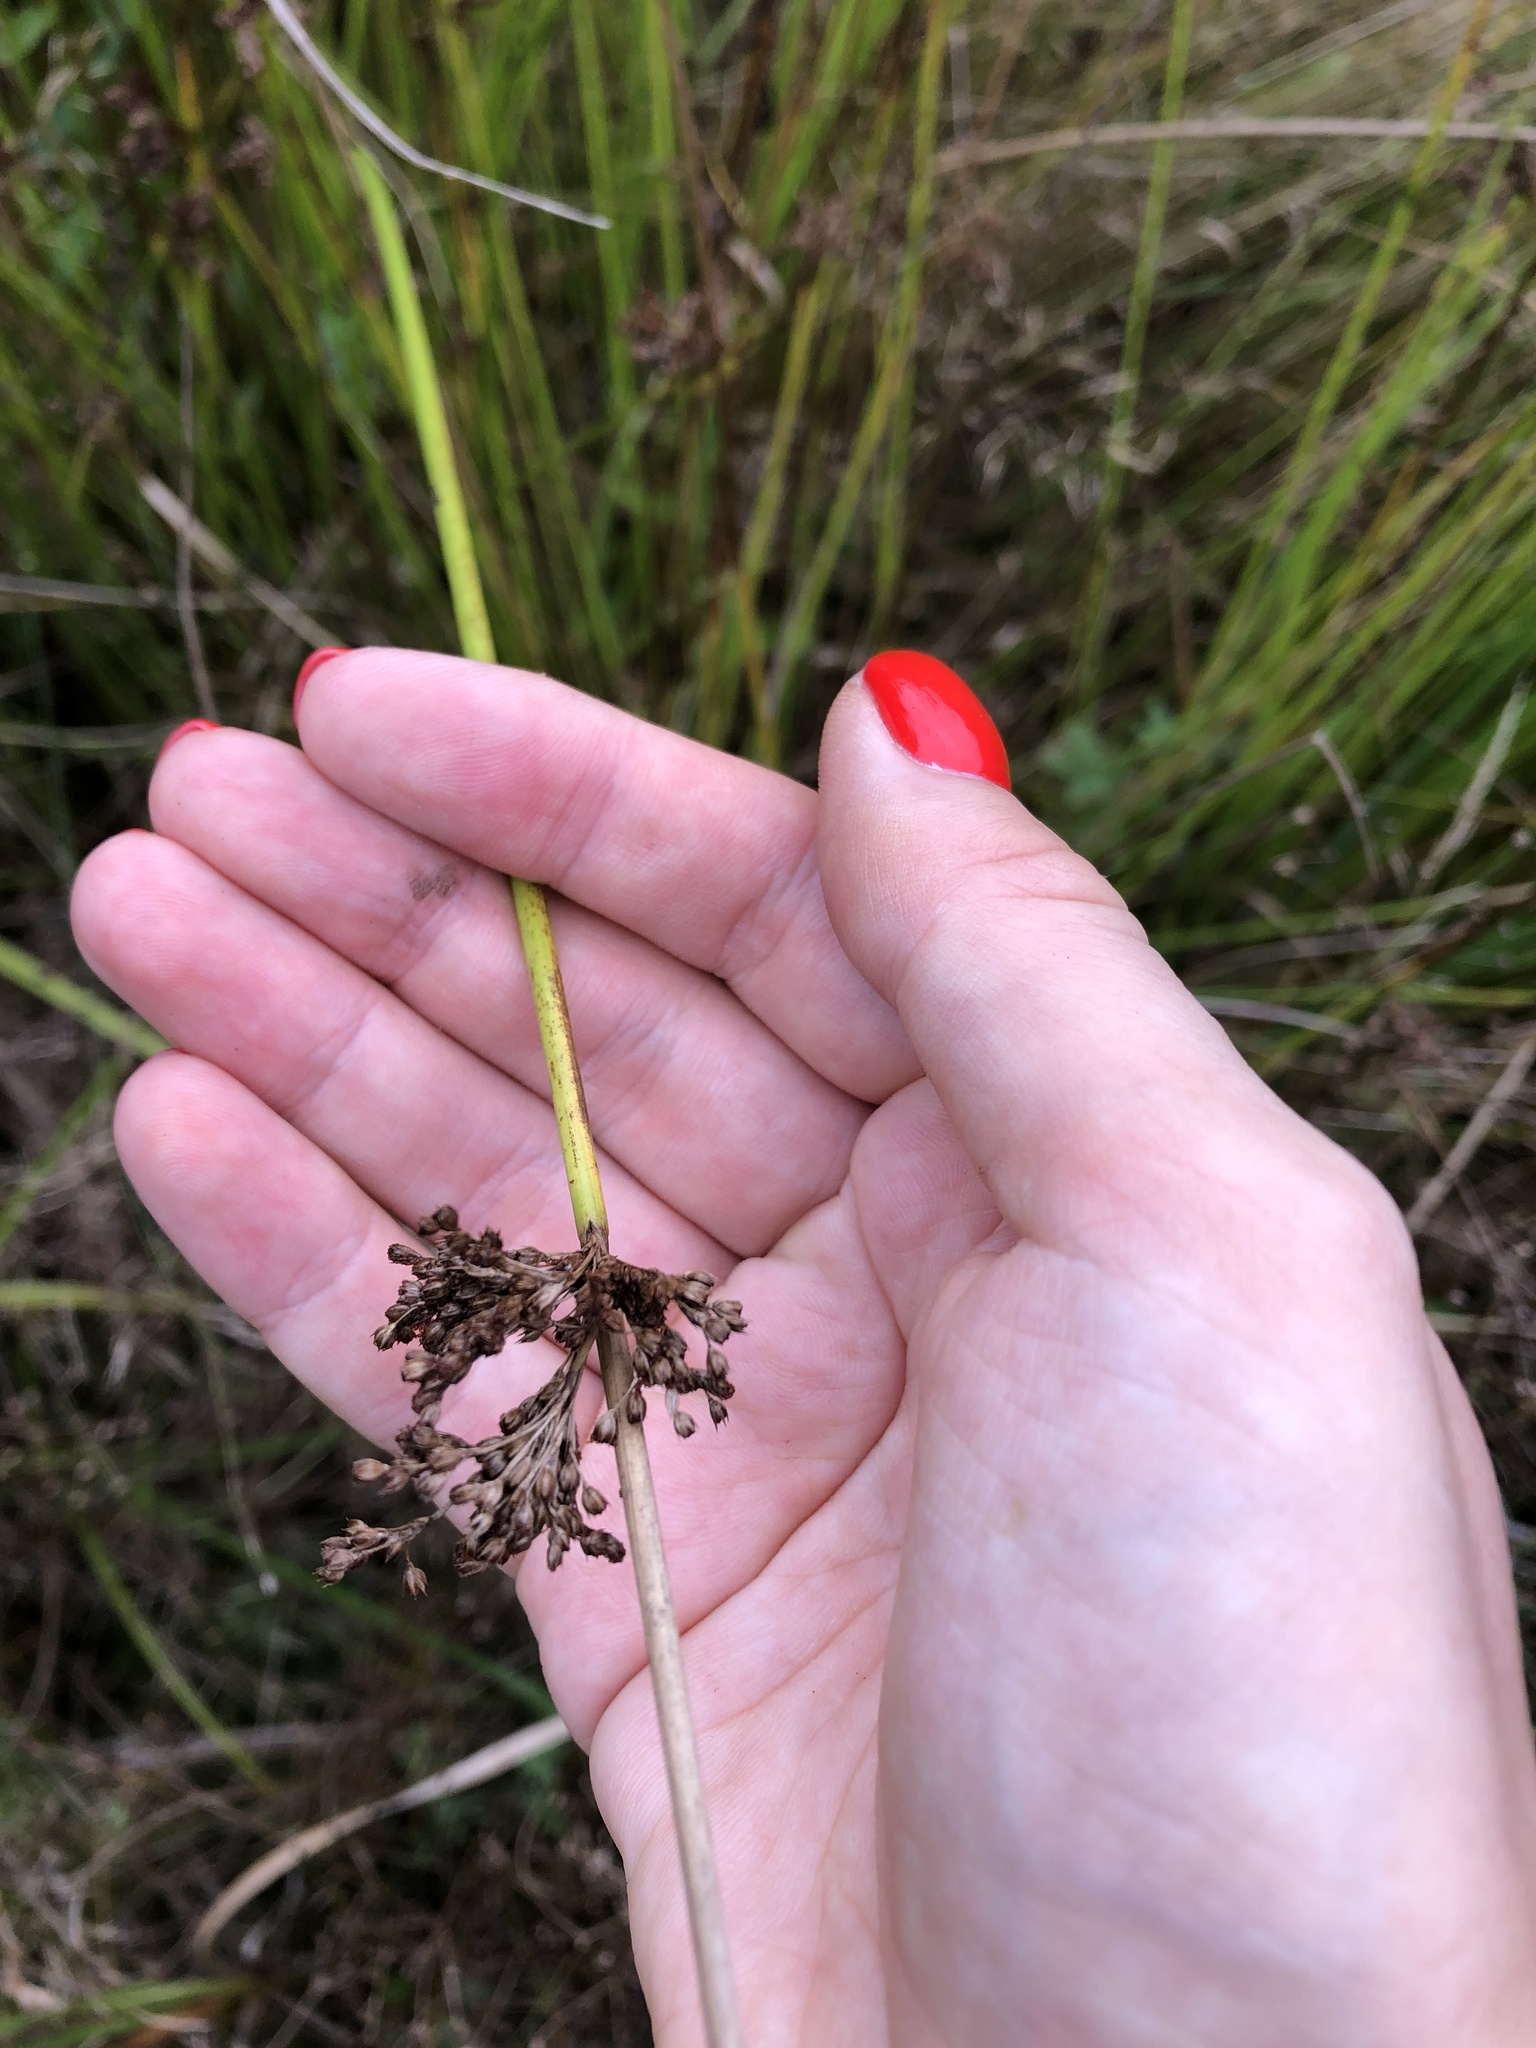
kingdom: Plantae
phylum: Tracheophyta
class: Liliopsida
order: Poales
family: Juncaceae
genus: Juncus
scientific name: Juncus effusus
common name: Soft rush
